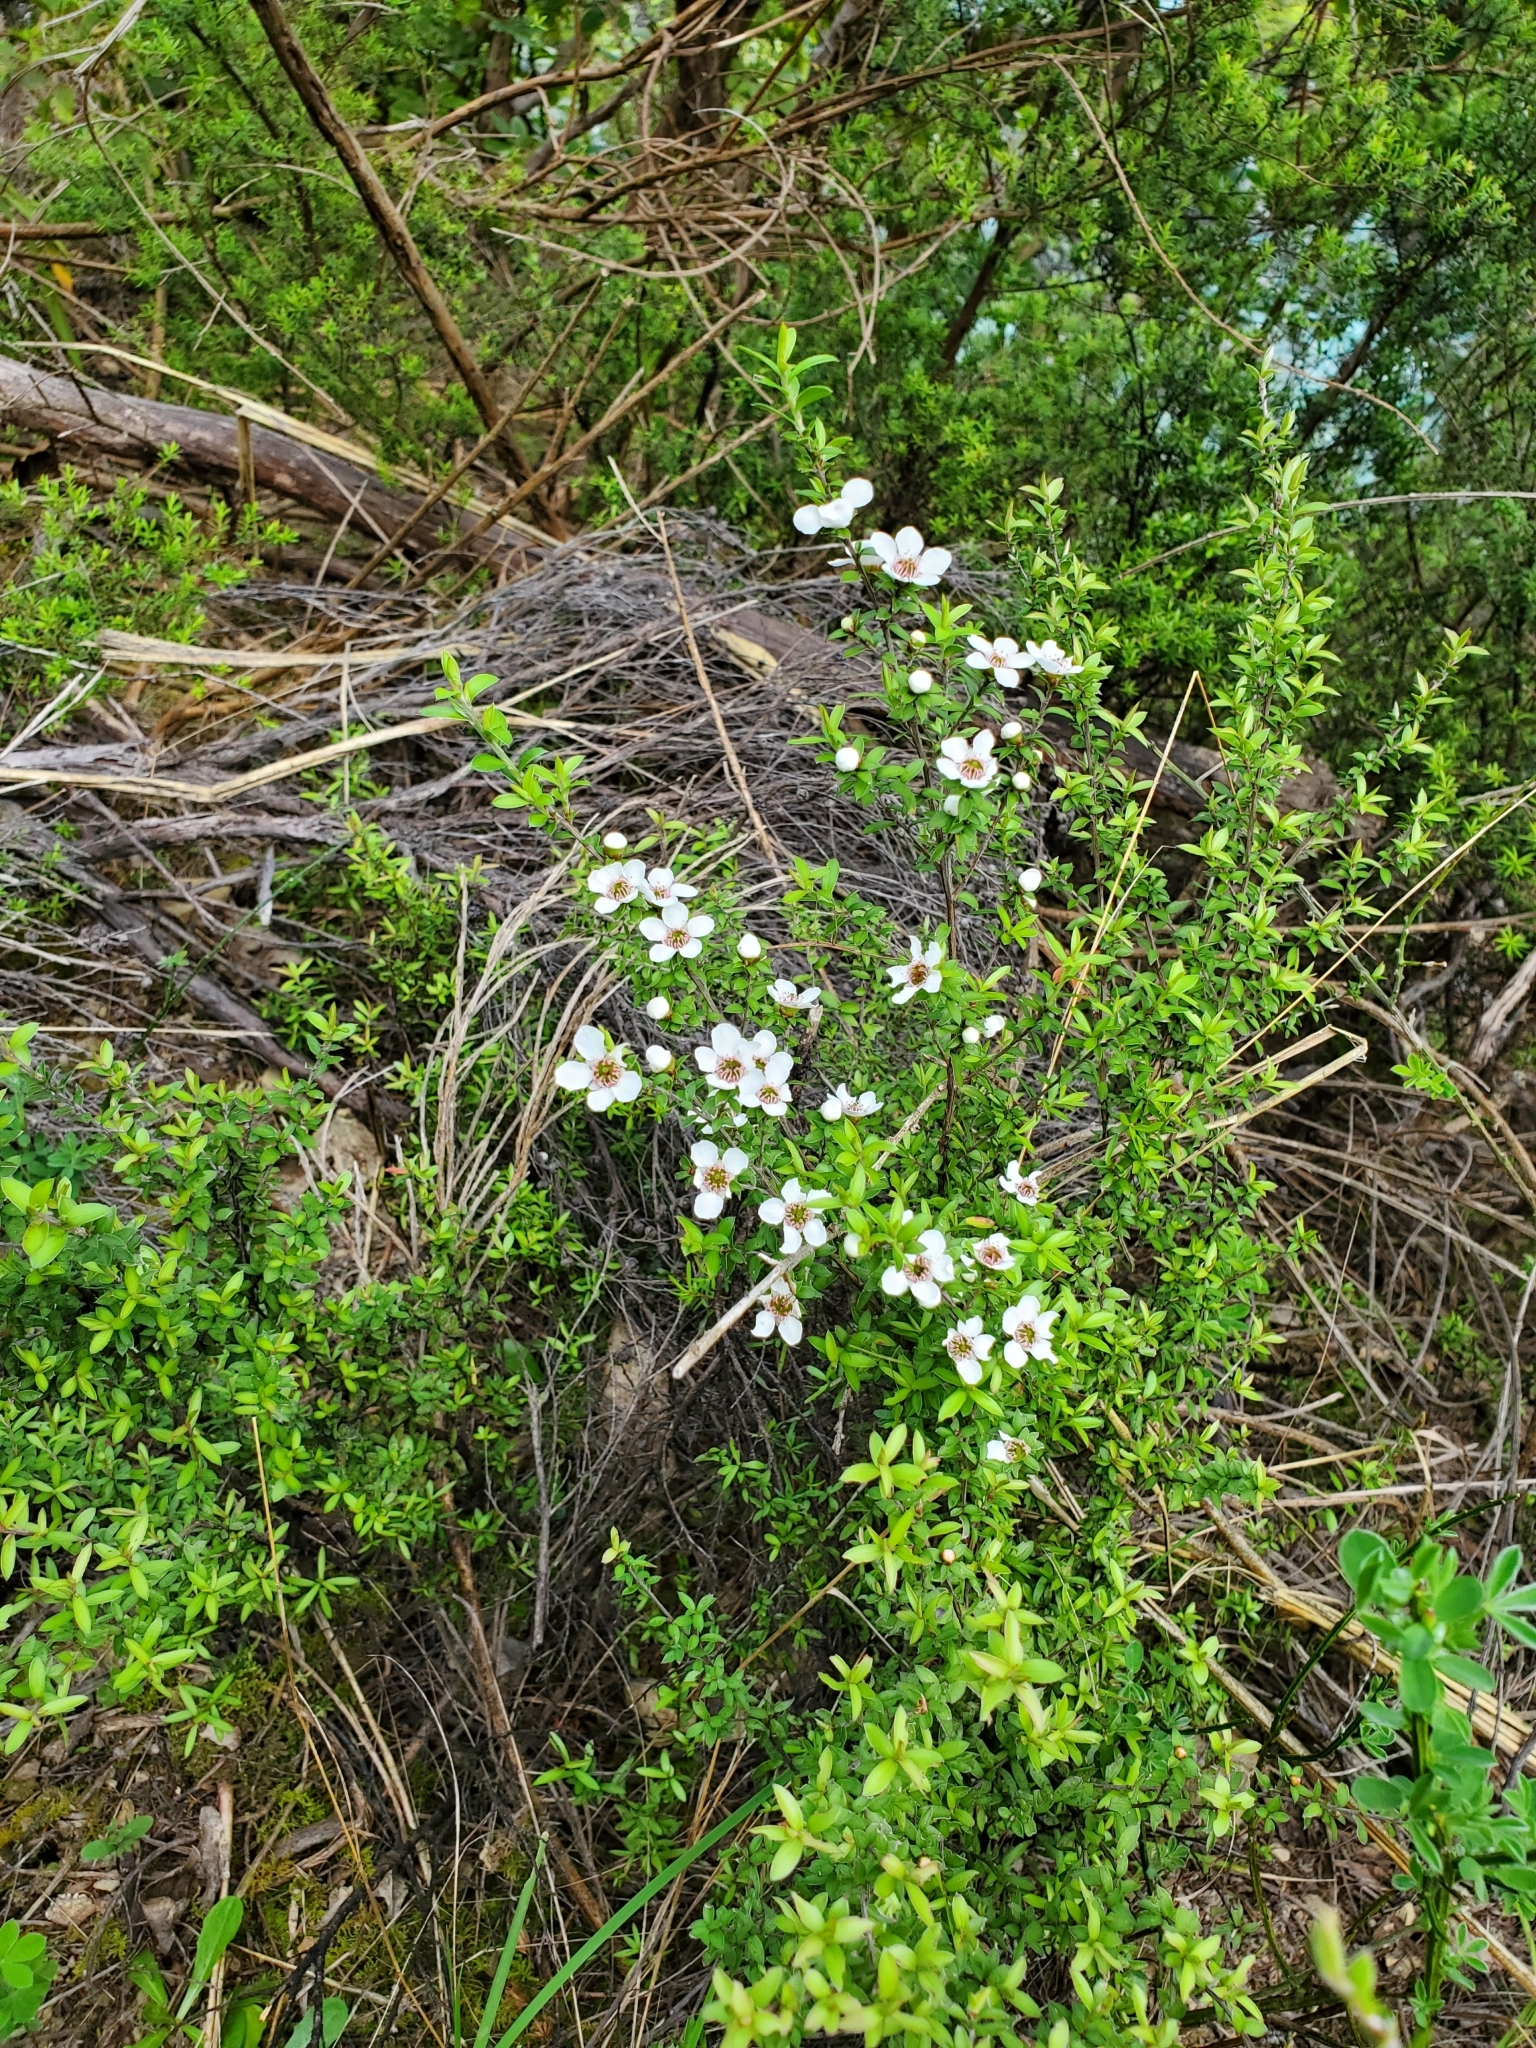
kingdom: Plantae
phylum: Tracheophyta
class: Magnoliopsida
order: Myrtales
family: Myrtaceae
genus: Leptospermum
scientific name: Leptospermum scoparium
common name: Broom tea-tree
